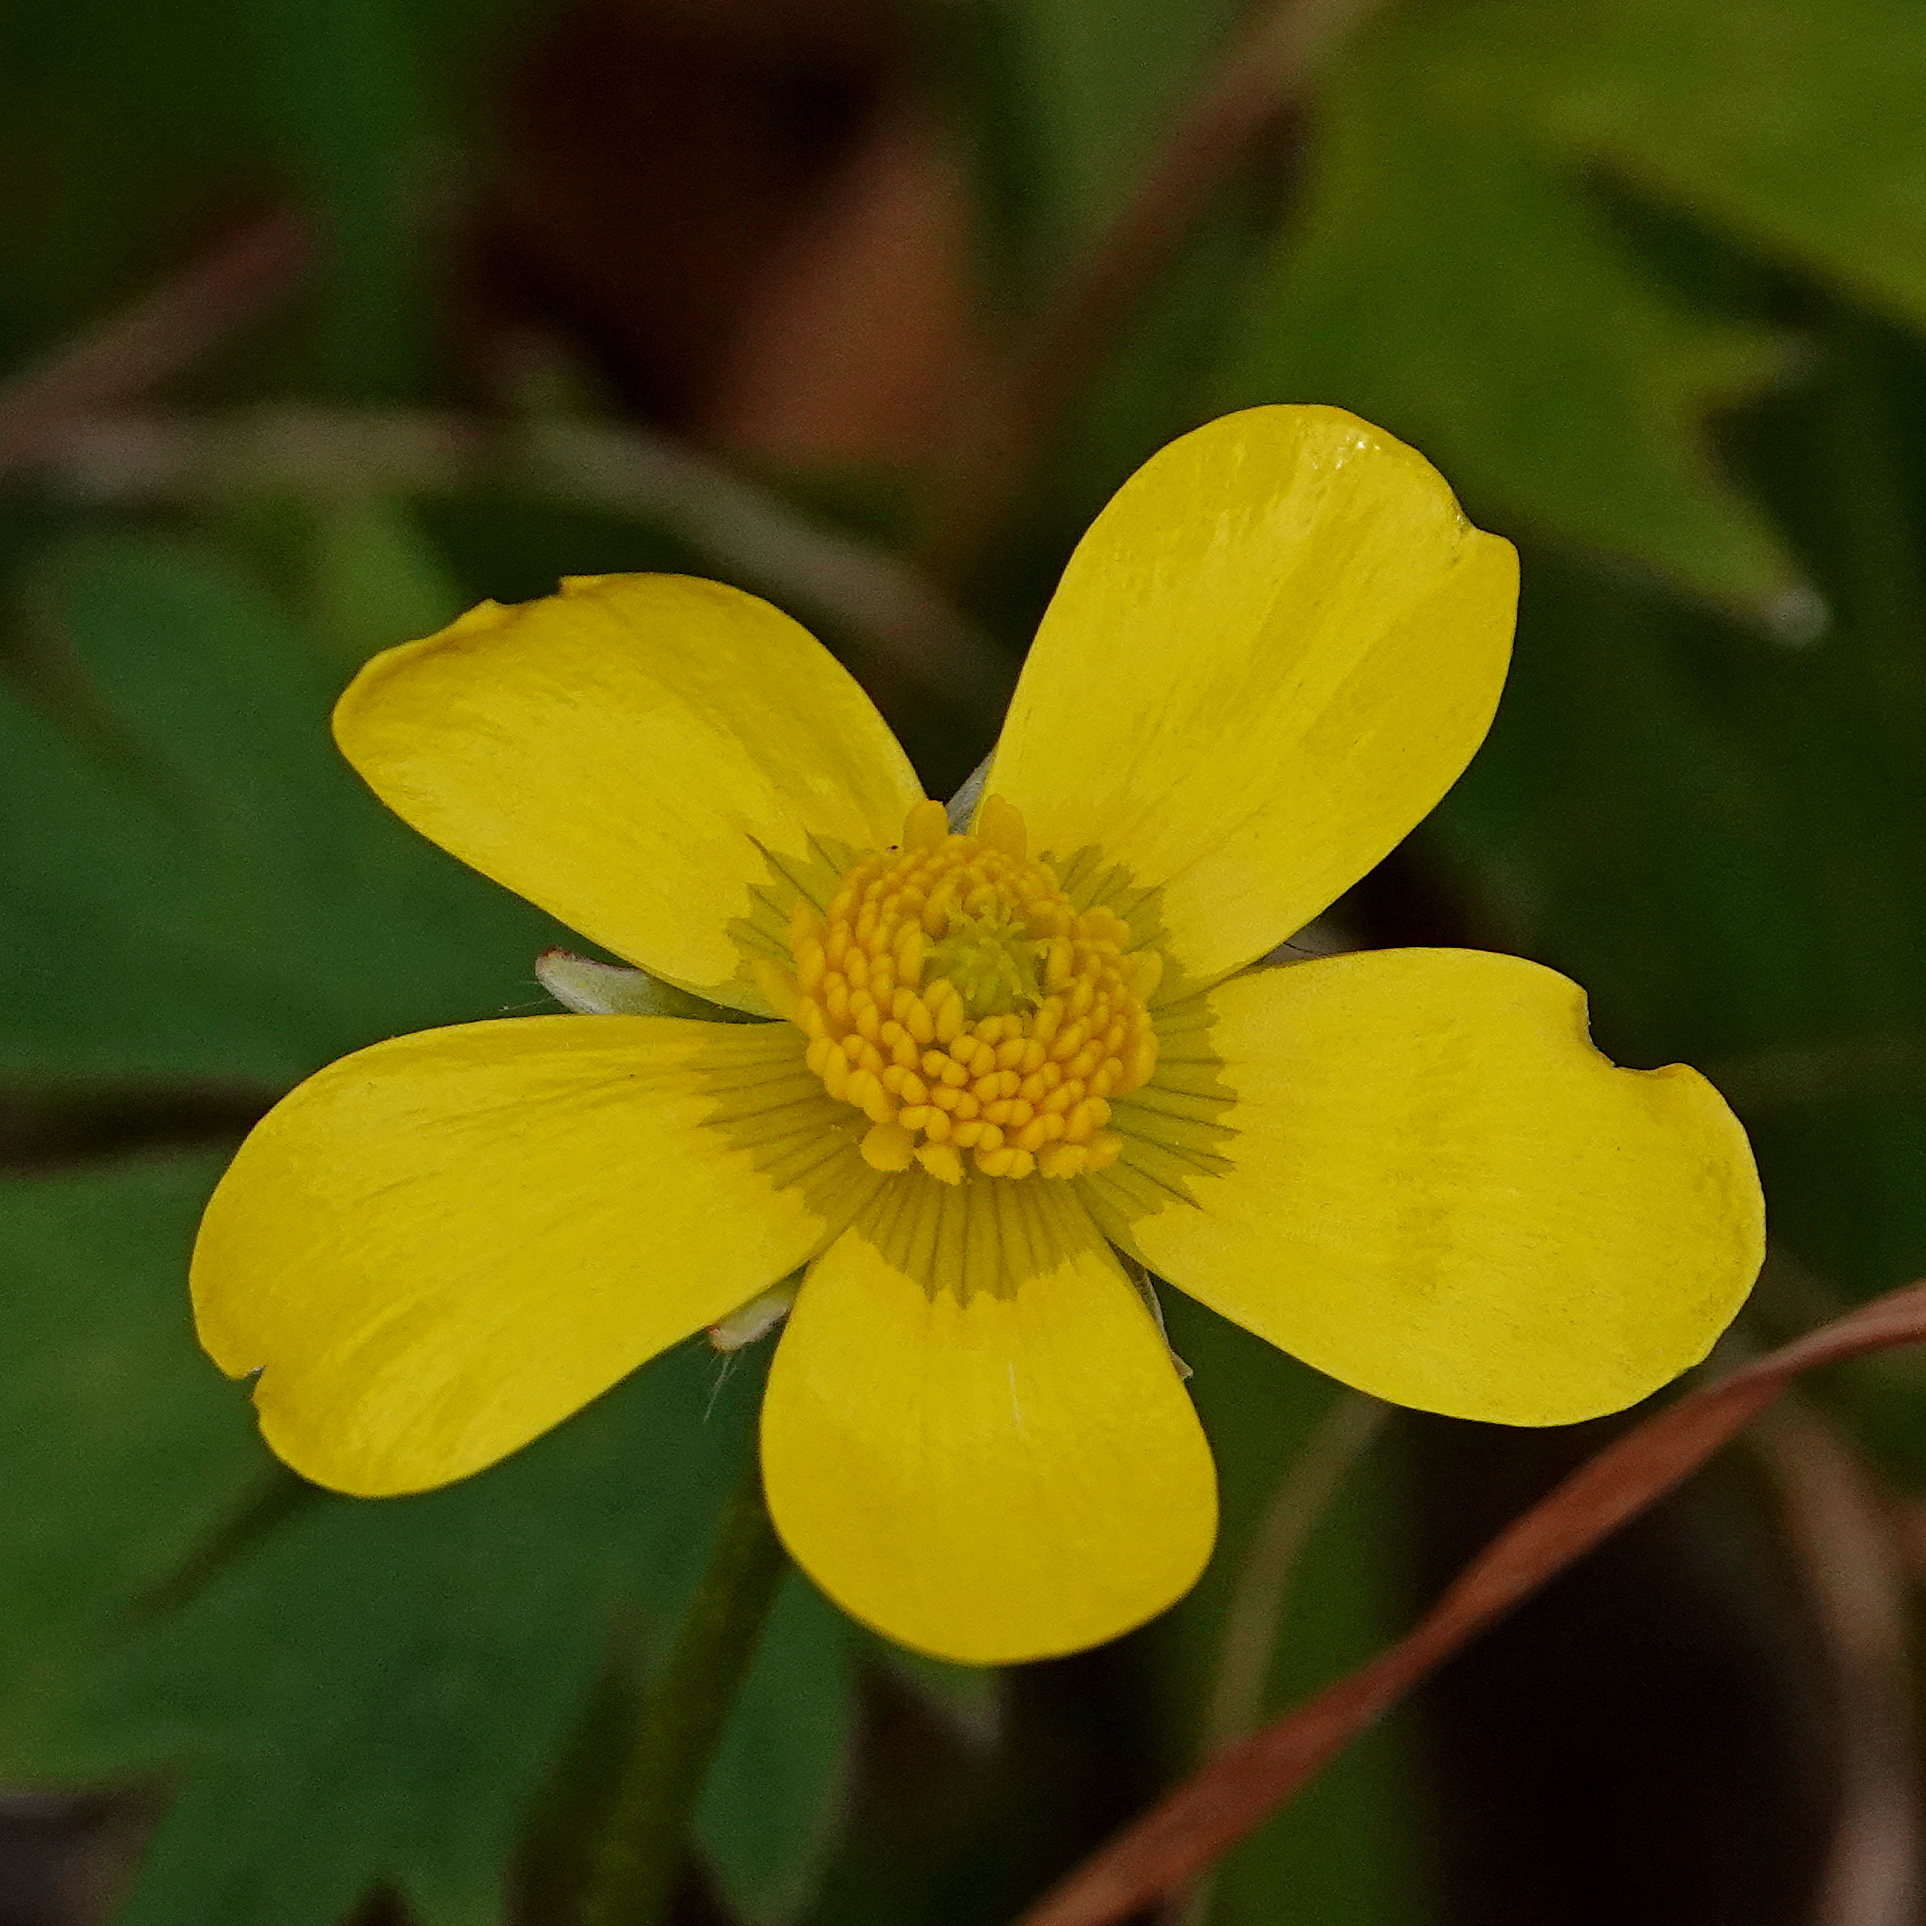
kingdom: Plantae
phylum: Tracheophyta
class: Magnoliopsida
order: Ranunculales
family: Ranunculaceae
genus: Ranunculus
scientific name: Ranunculus lappaceus
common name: Australian buttercup
